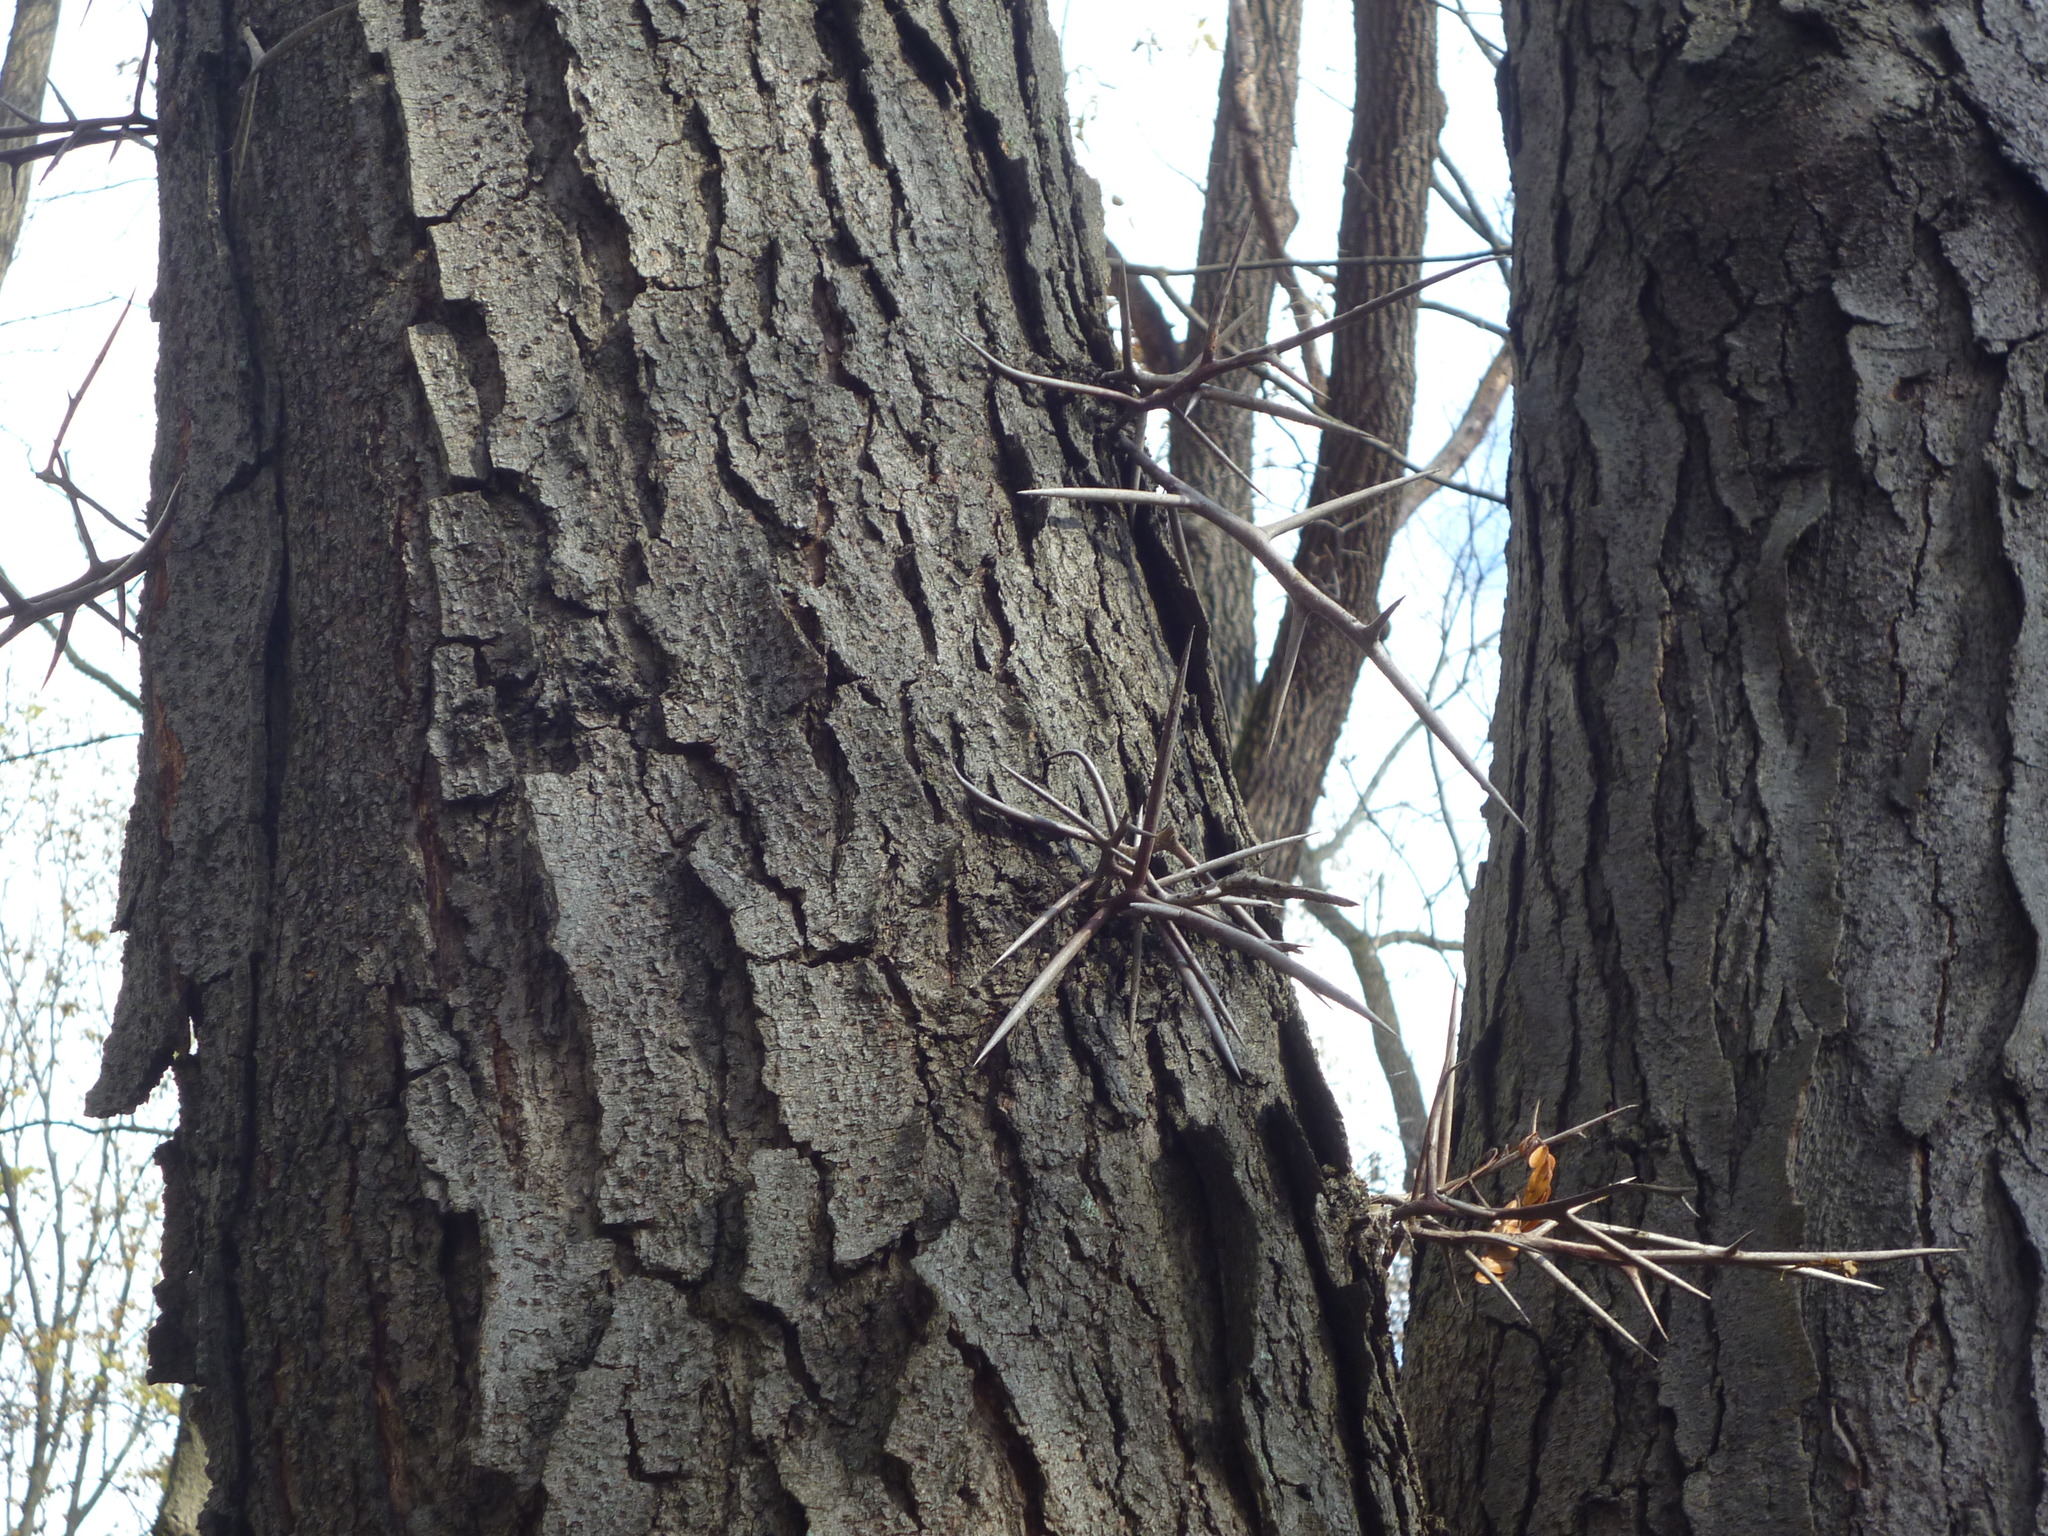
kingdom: Plantae
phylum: Tracheophyta
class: Magnoliopsida
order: Fabales
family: Fabaceae
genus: Gleditsia
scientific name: Gleditsia triacanthos
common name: Common honeylocust
